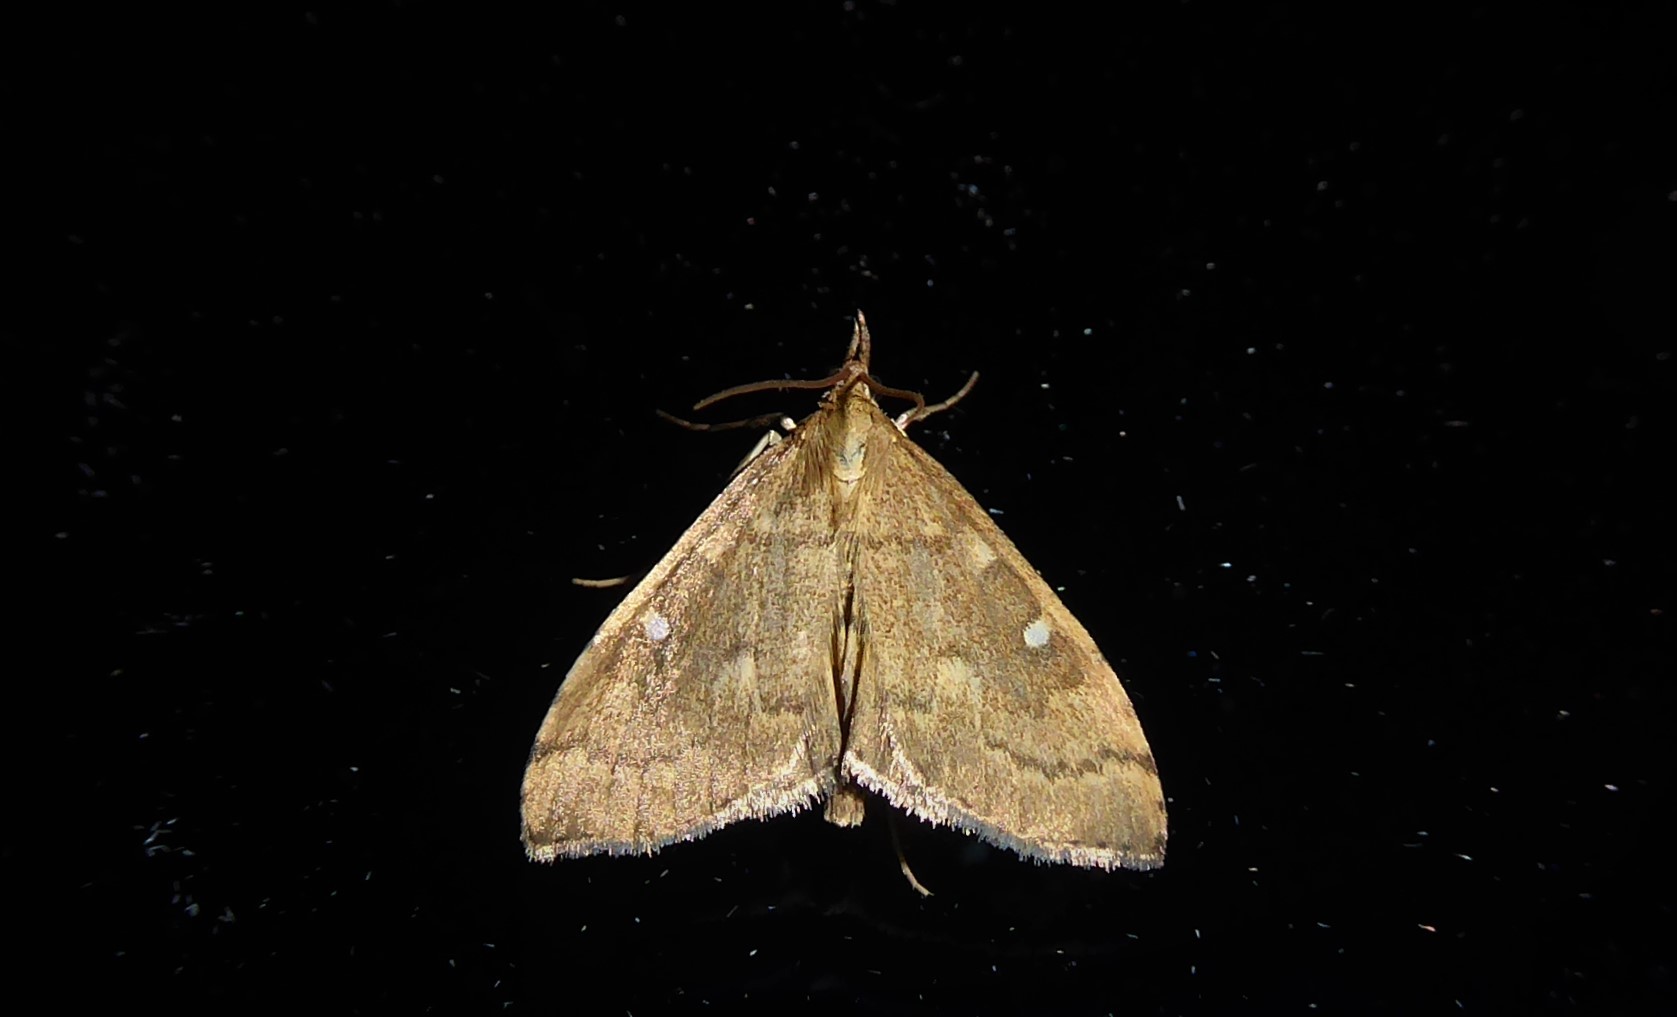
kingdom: Animalia
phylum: Arthropoda
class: Insecta
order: Lepidoptera
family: Crambidae
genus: Udea
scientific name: Udea Mnesictena marmarina
